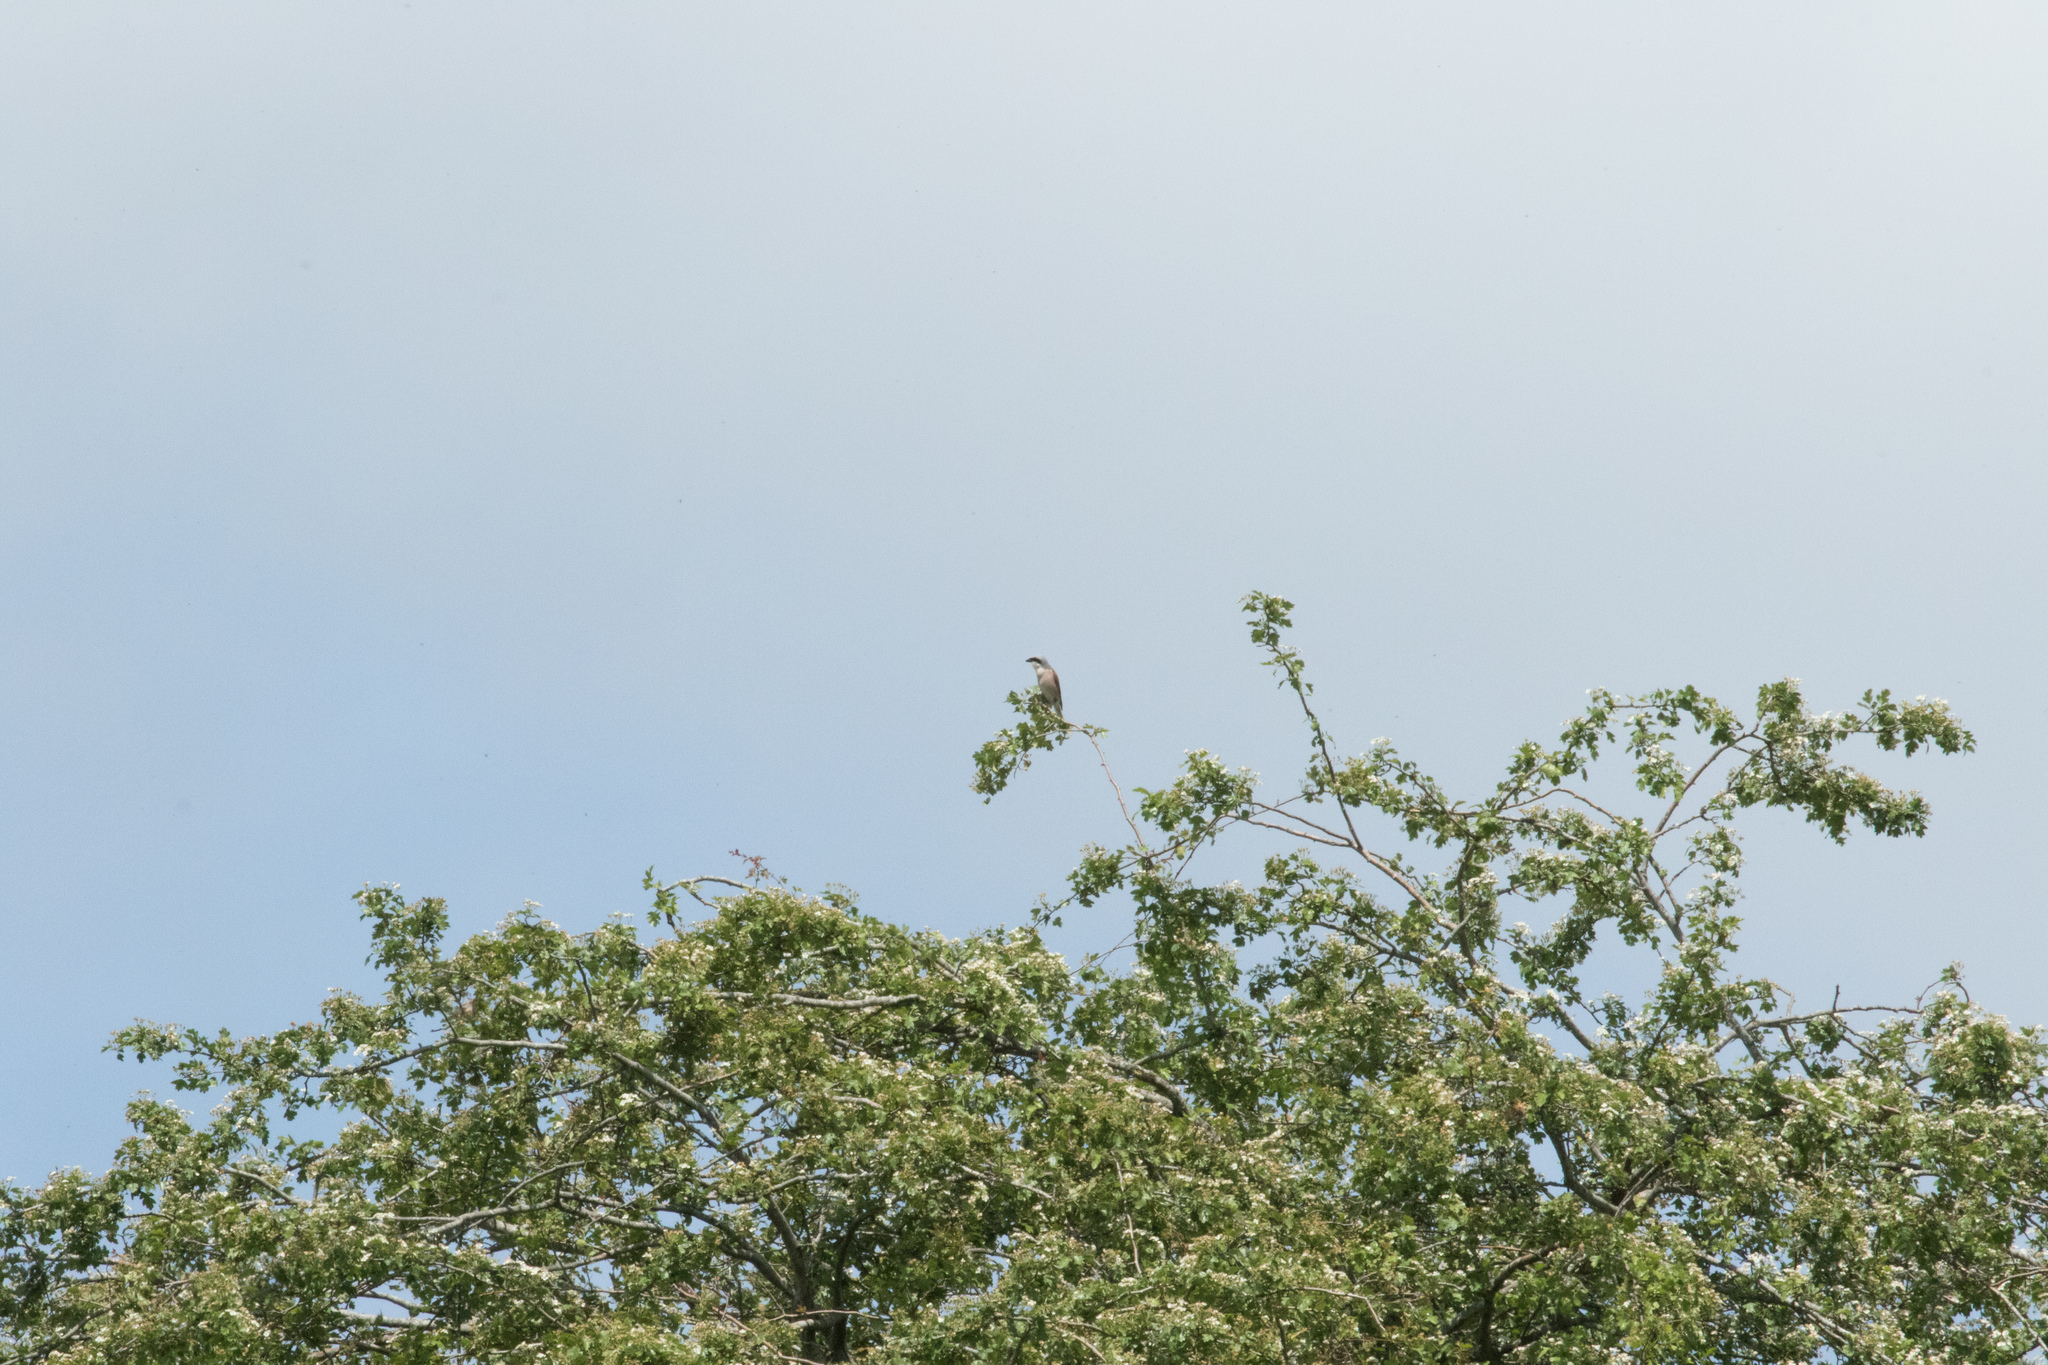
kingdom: Animalia
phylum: Chordata
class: Aves
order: Passeriformes
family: Laniidae
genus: Lanius
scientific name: Lanius collurio
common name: Red-backed shrike
